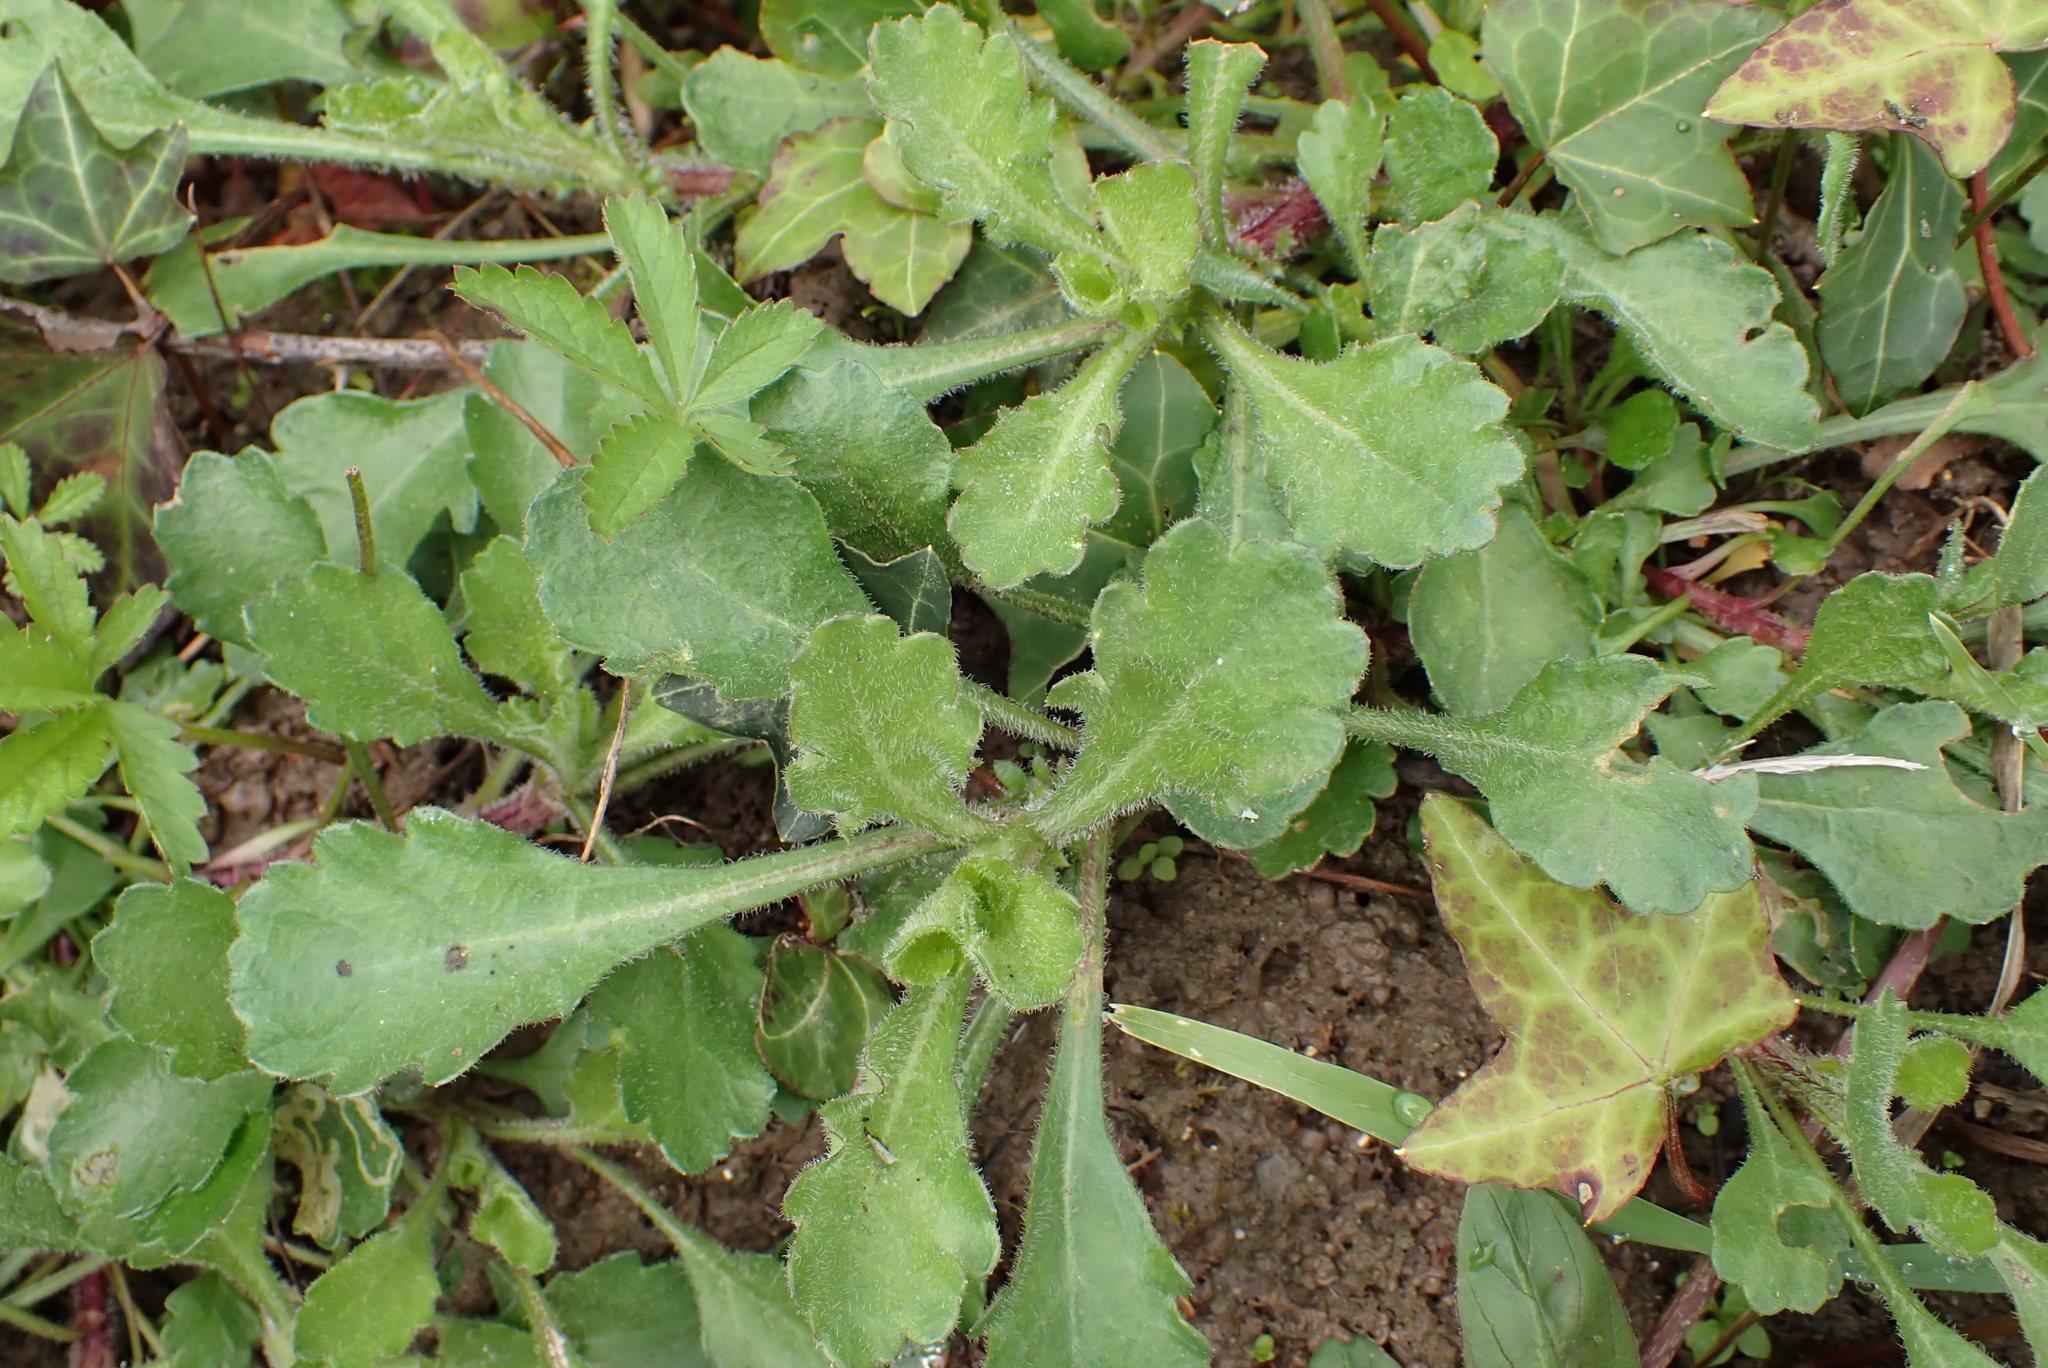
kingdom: Plantae
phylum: Tracheophyta
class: Magnoliopsida
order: Asterales
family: Asteraceae
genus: Leucanthemum
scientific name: Leucanthemum vulgare
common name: Oxeye daisy
